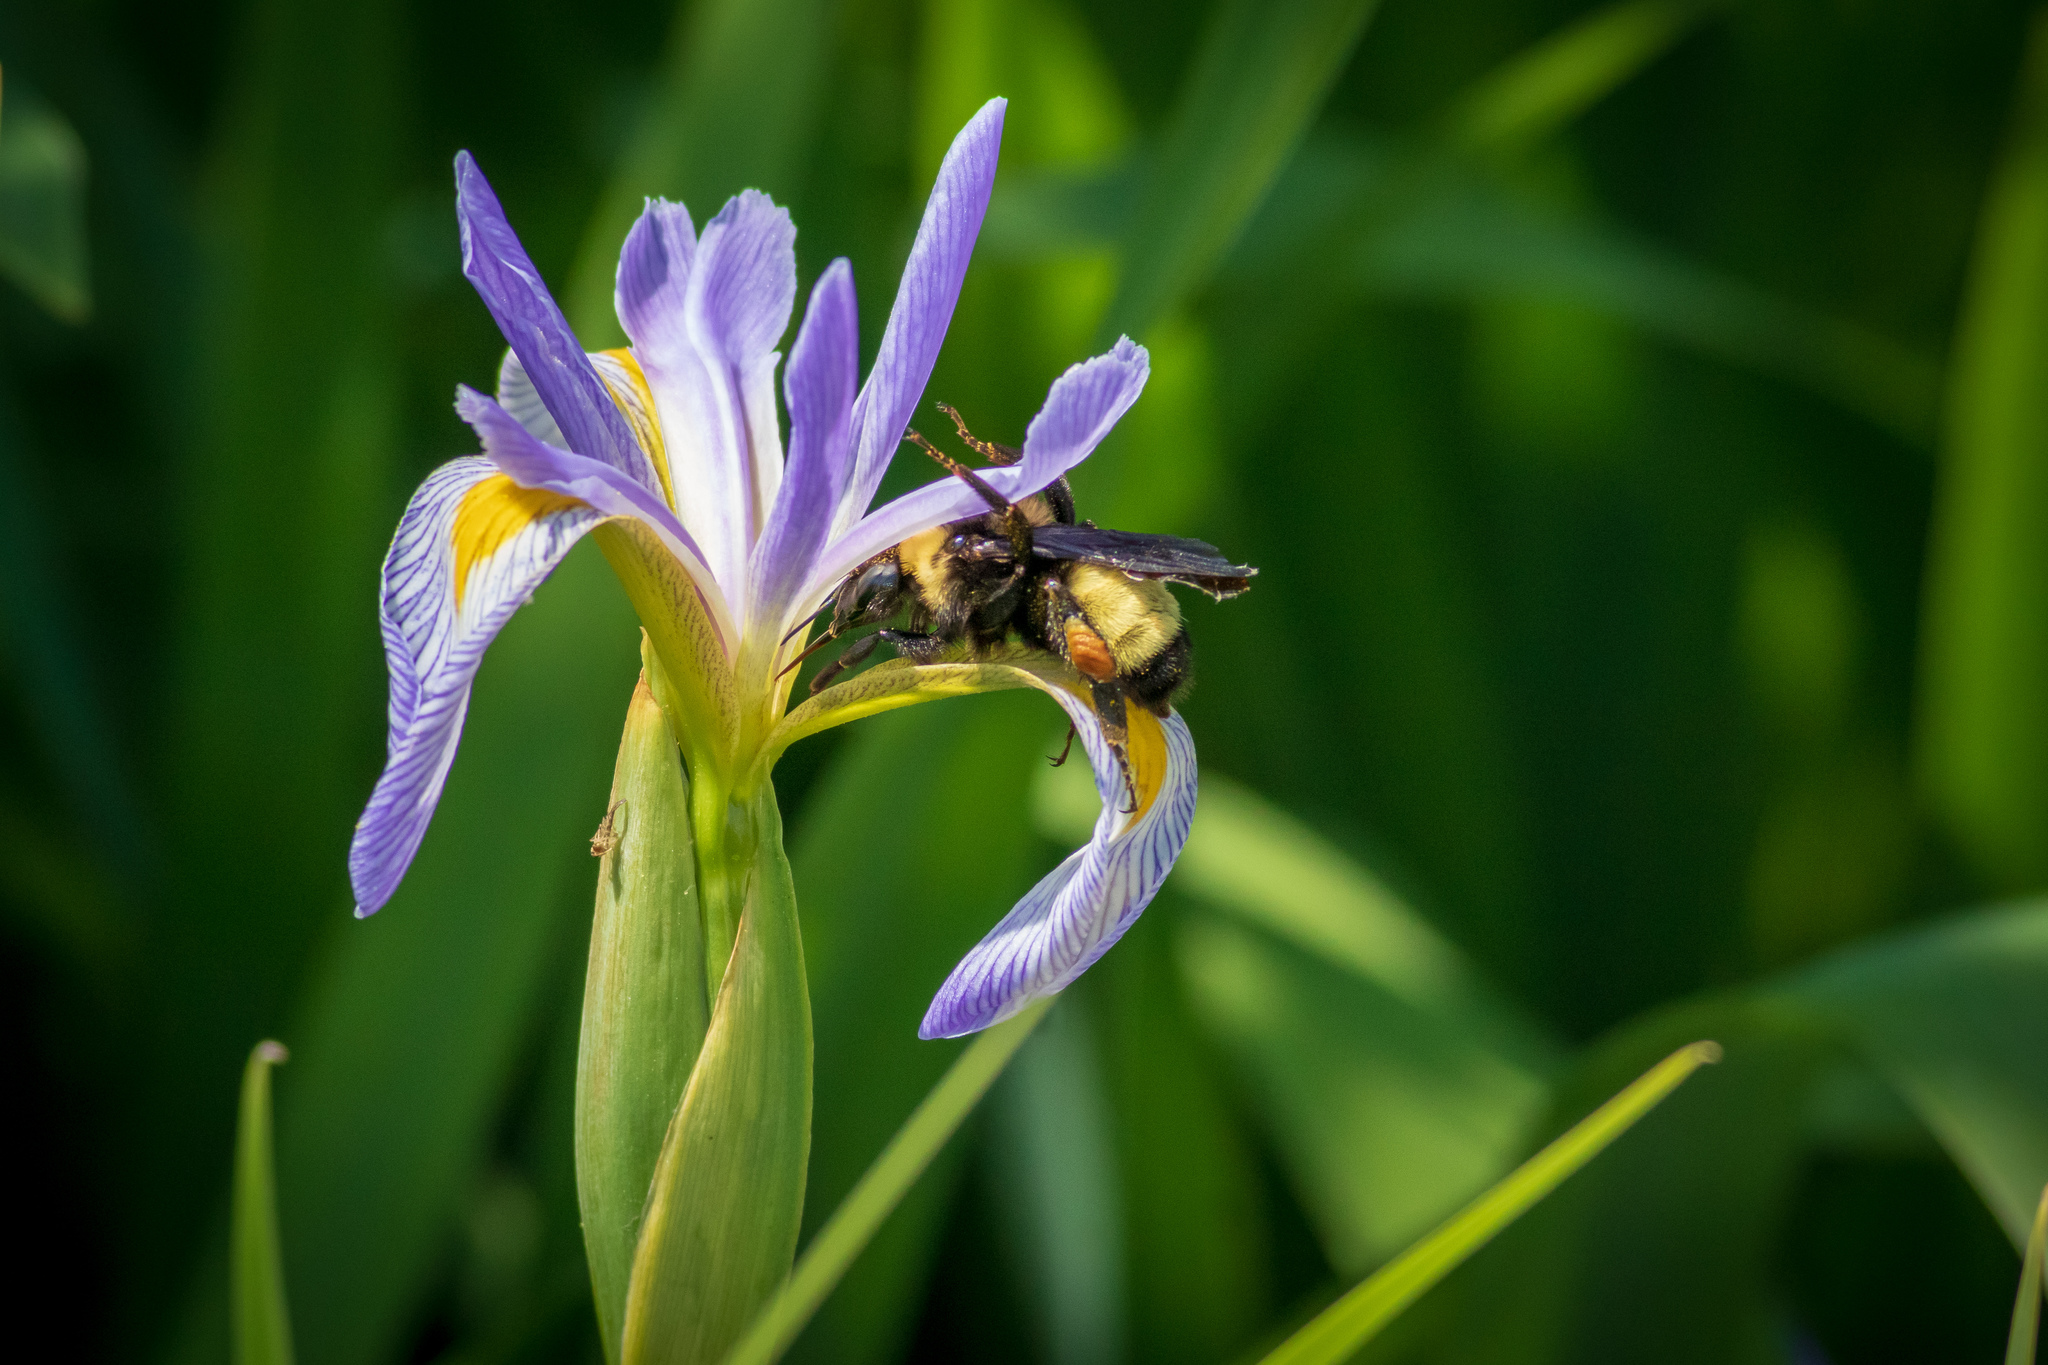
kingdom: Plantae
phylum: Tracheophyta
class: Liliopsida
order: Asparagales
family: Iridaceae
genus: Iris
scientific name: Iris virginica
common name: Southern blue flag
